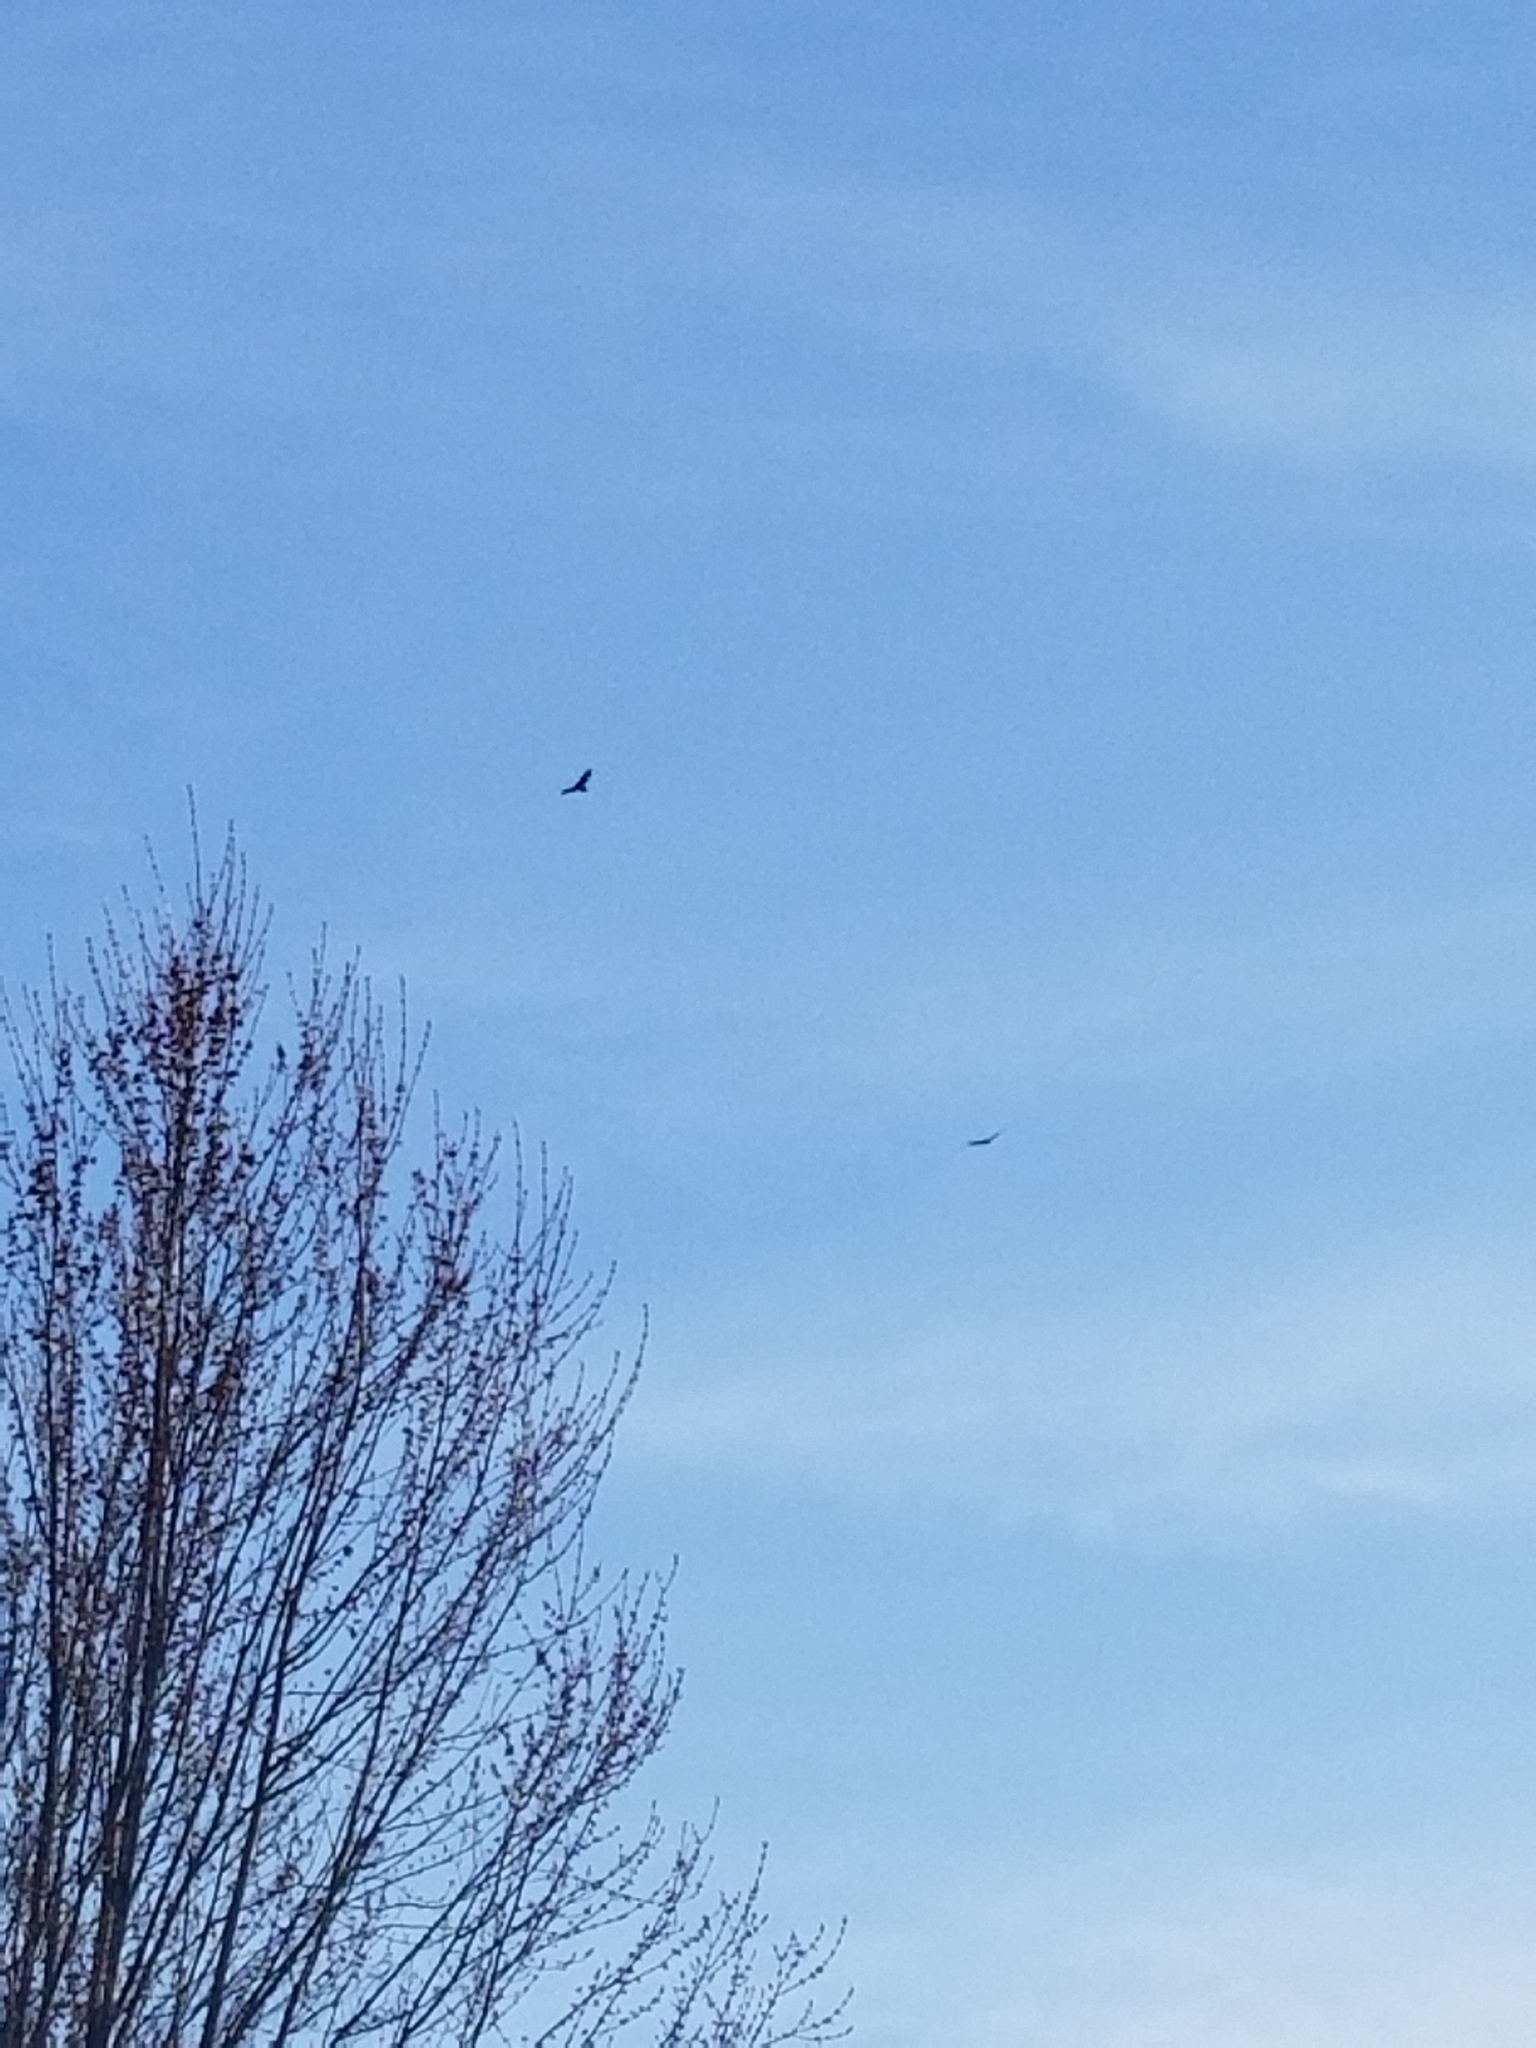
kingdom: Animalia
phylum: Chordata
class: Aves
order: Accipitriformes
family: Cathartidae
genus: Cathartes
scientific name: Cathartes aura
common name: Turkey vulture
